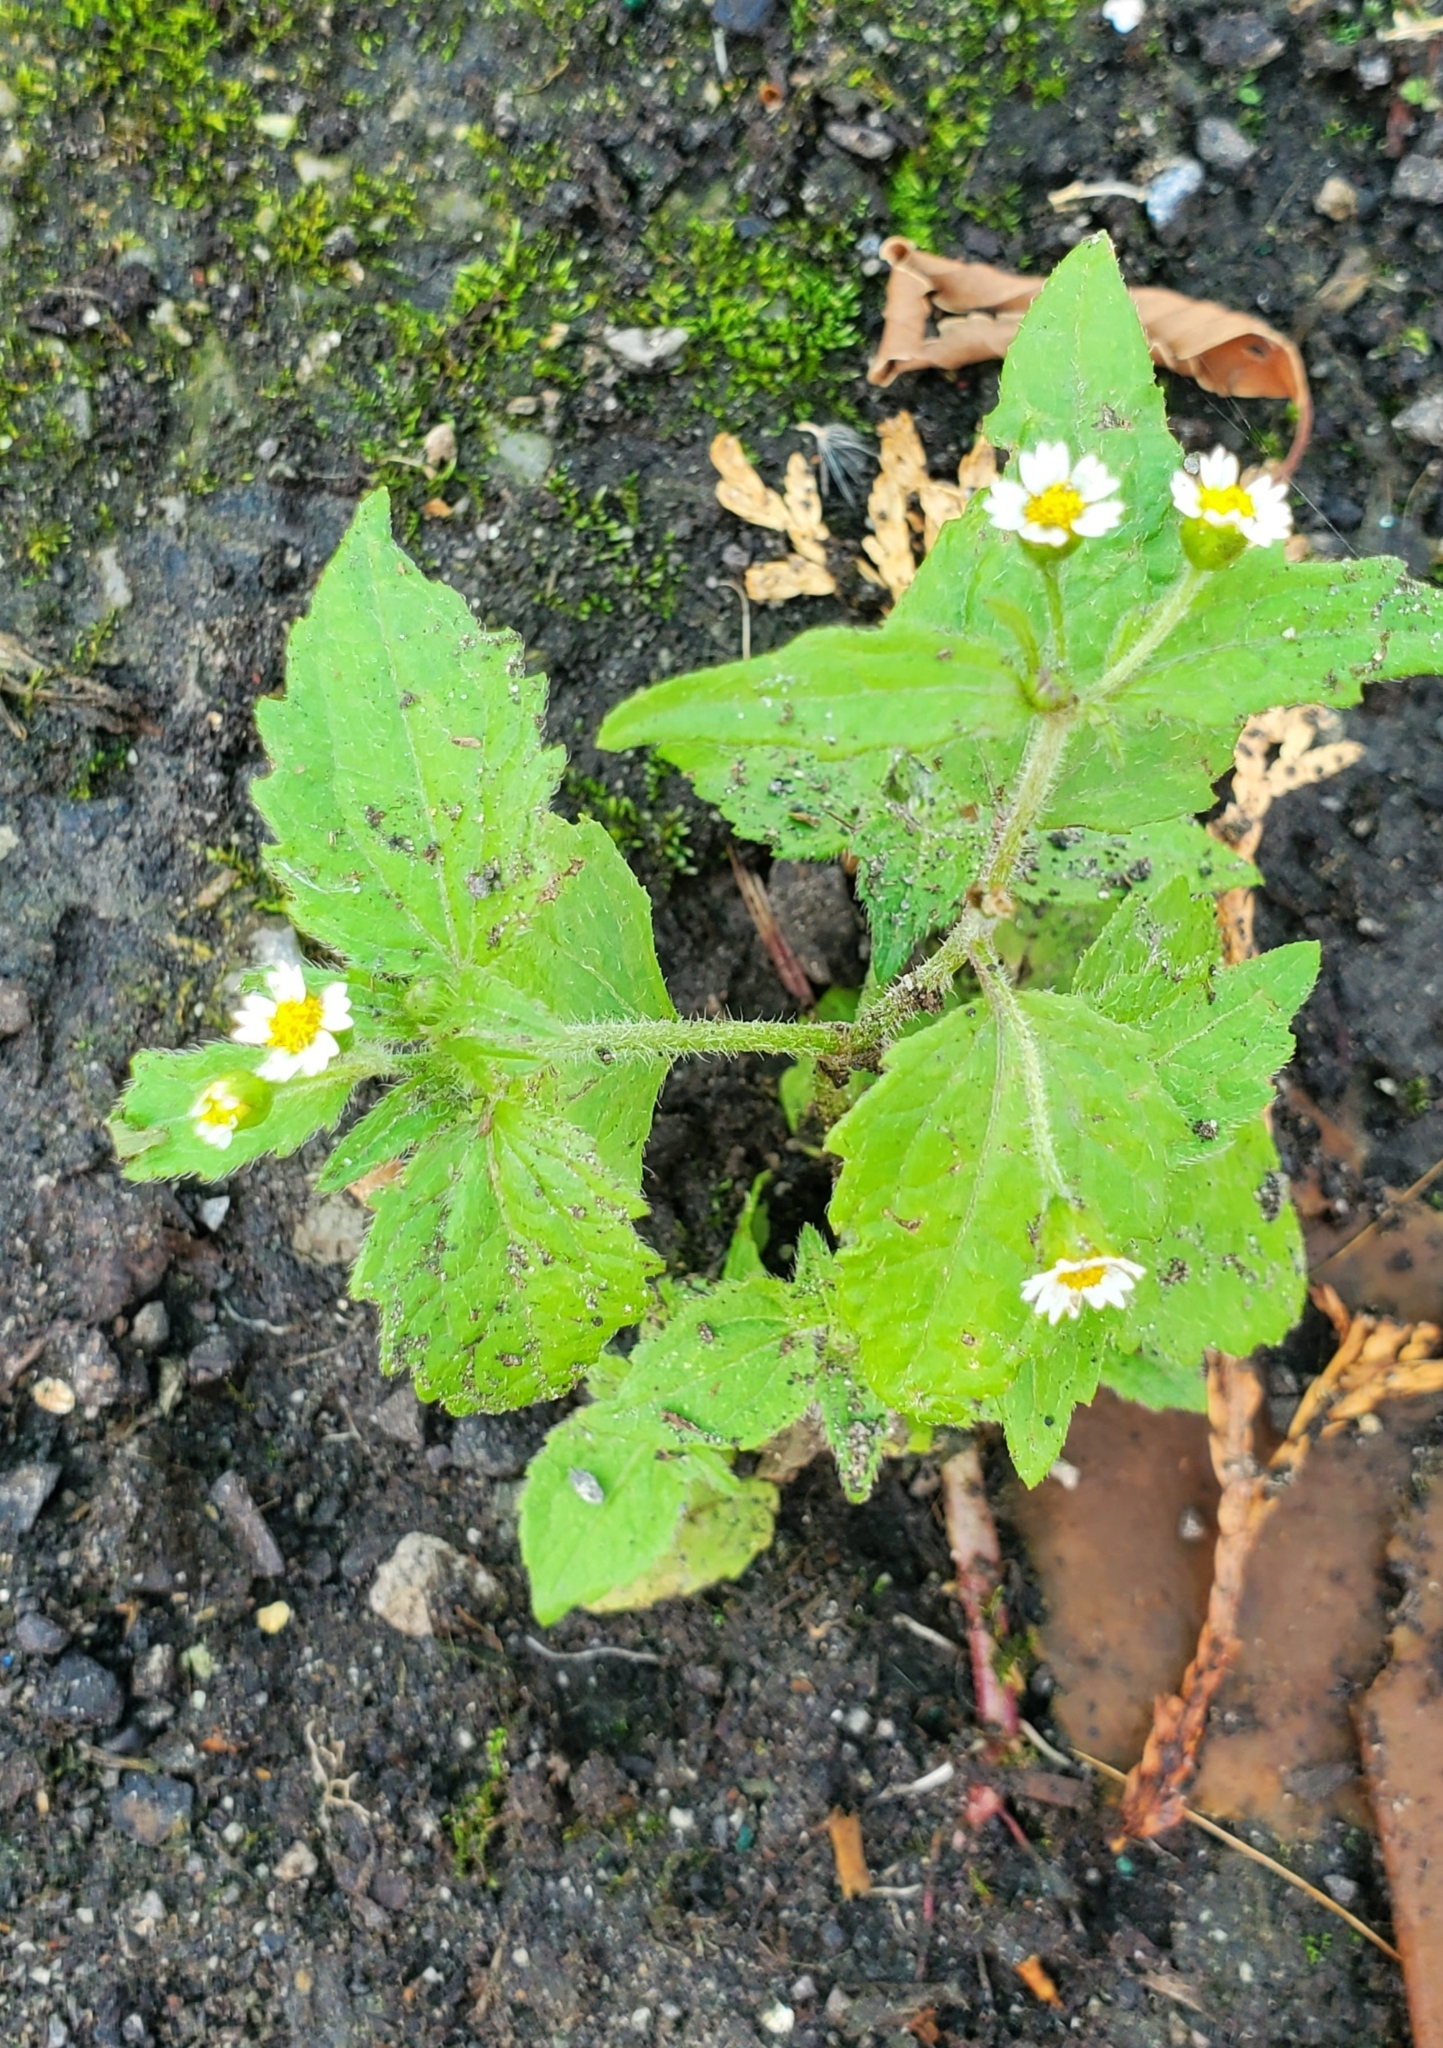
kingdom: Plantae
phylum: Tracheophyta
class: Magnoliopsida
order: Asterales
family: Asteraceae
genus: Galinsoga
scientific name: Galinsoga quadriradiata
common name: Shaggy soldier
